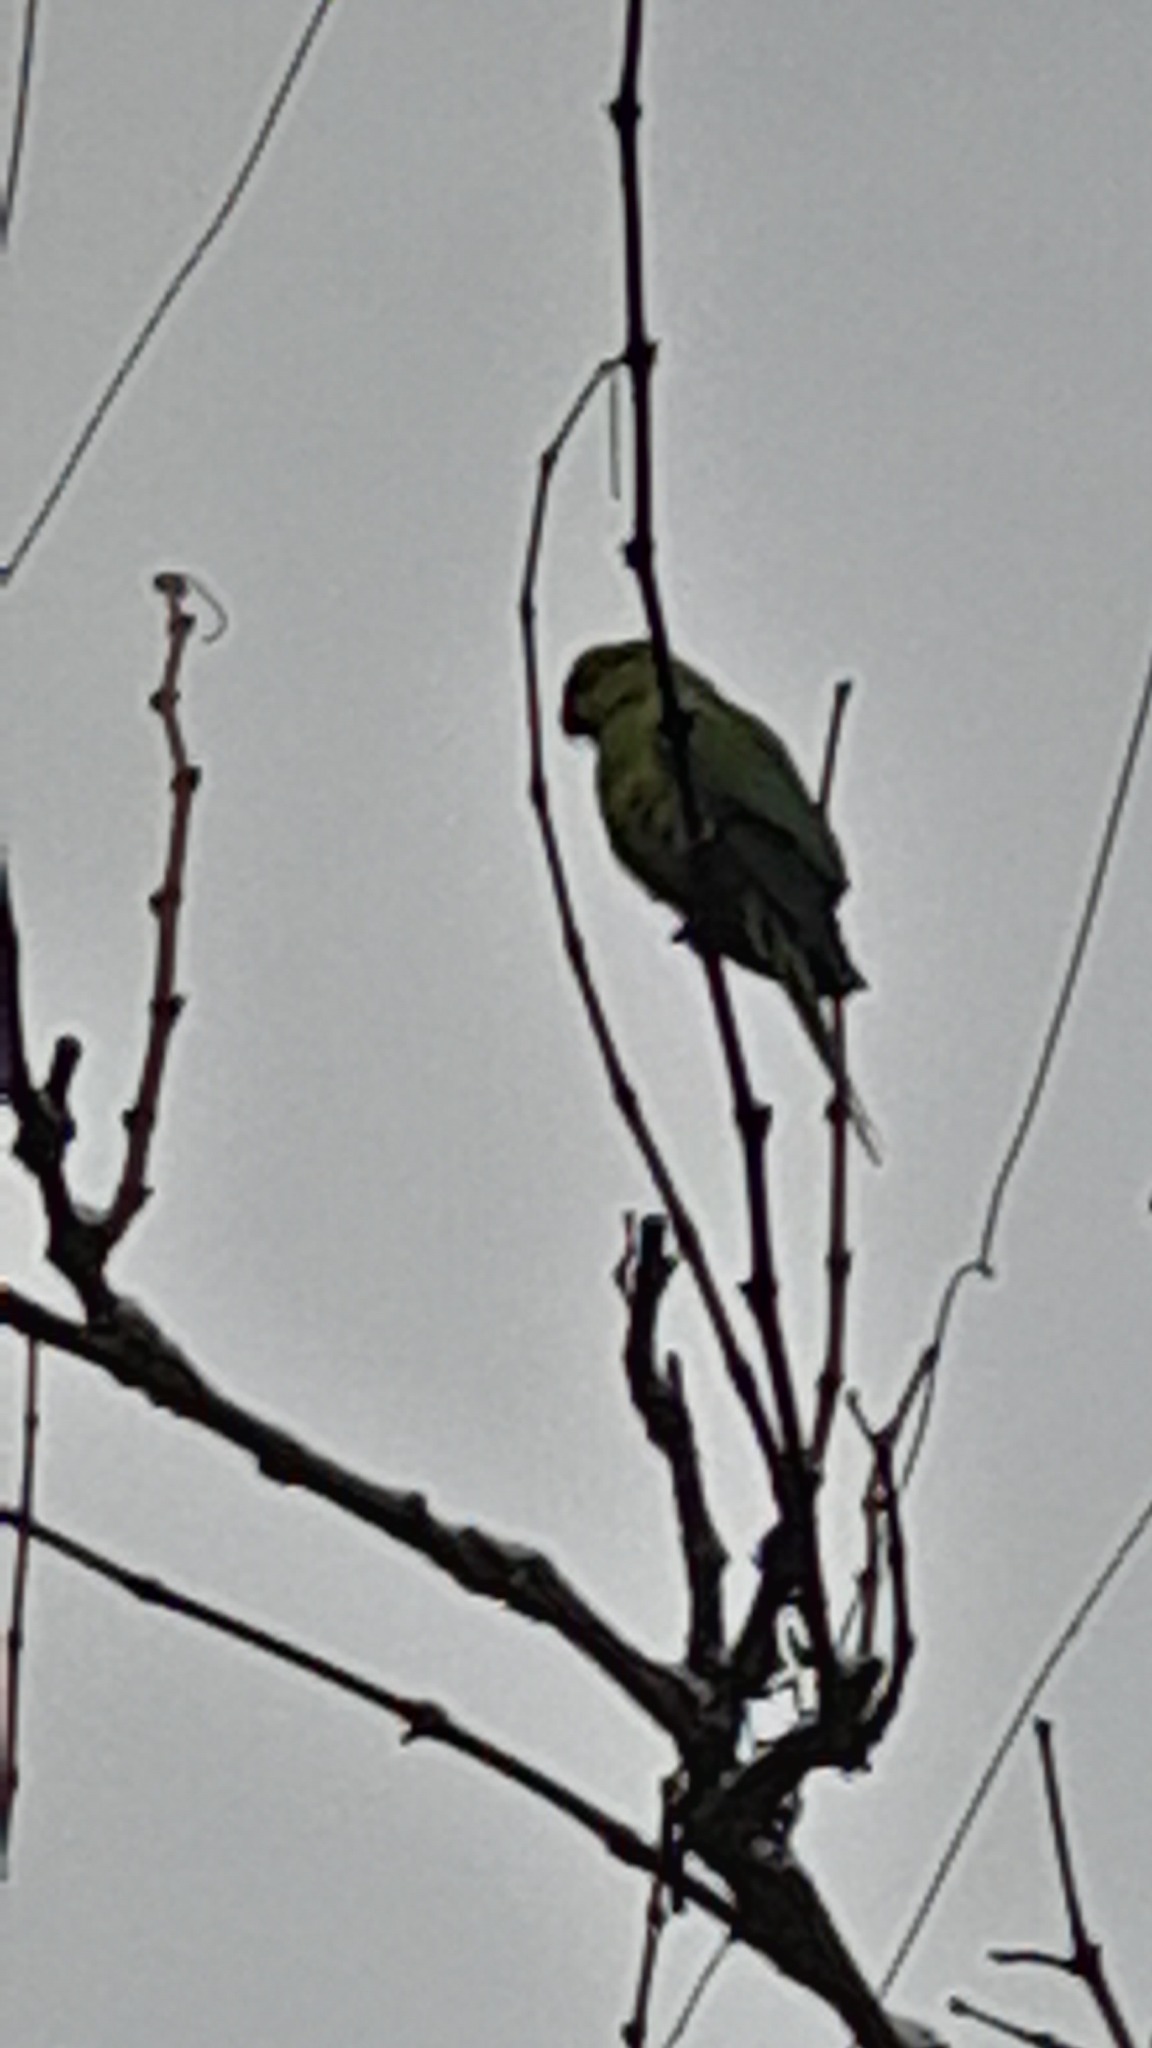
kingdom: Animalia
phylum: Chordata
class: Aves
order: Psittaciformes
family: Psittacidae
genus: Psittacula
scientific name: Psittacula krameri
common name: Rose-ringed parakeet
